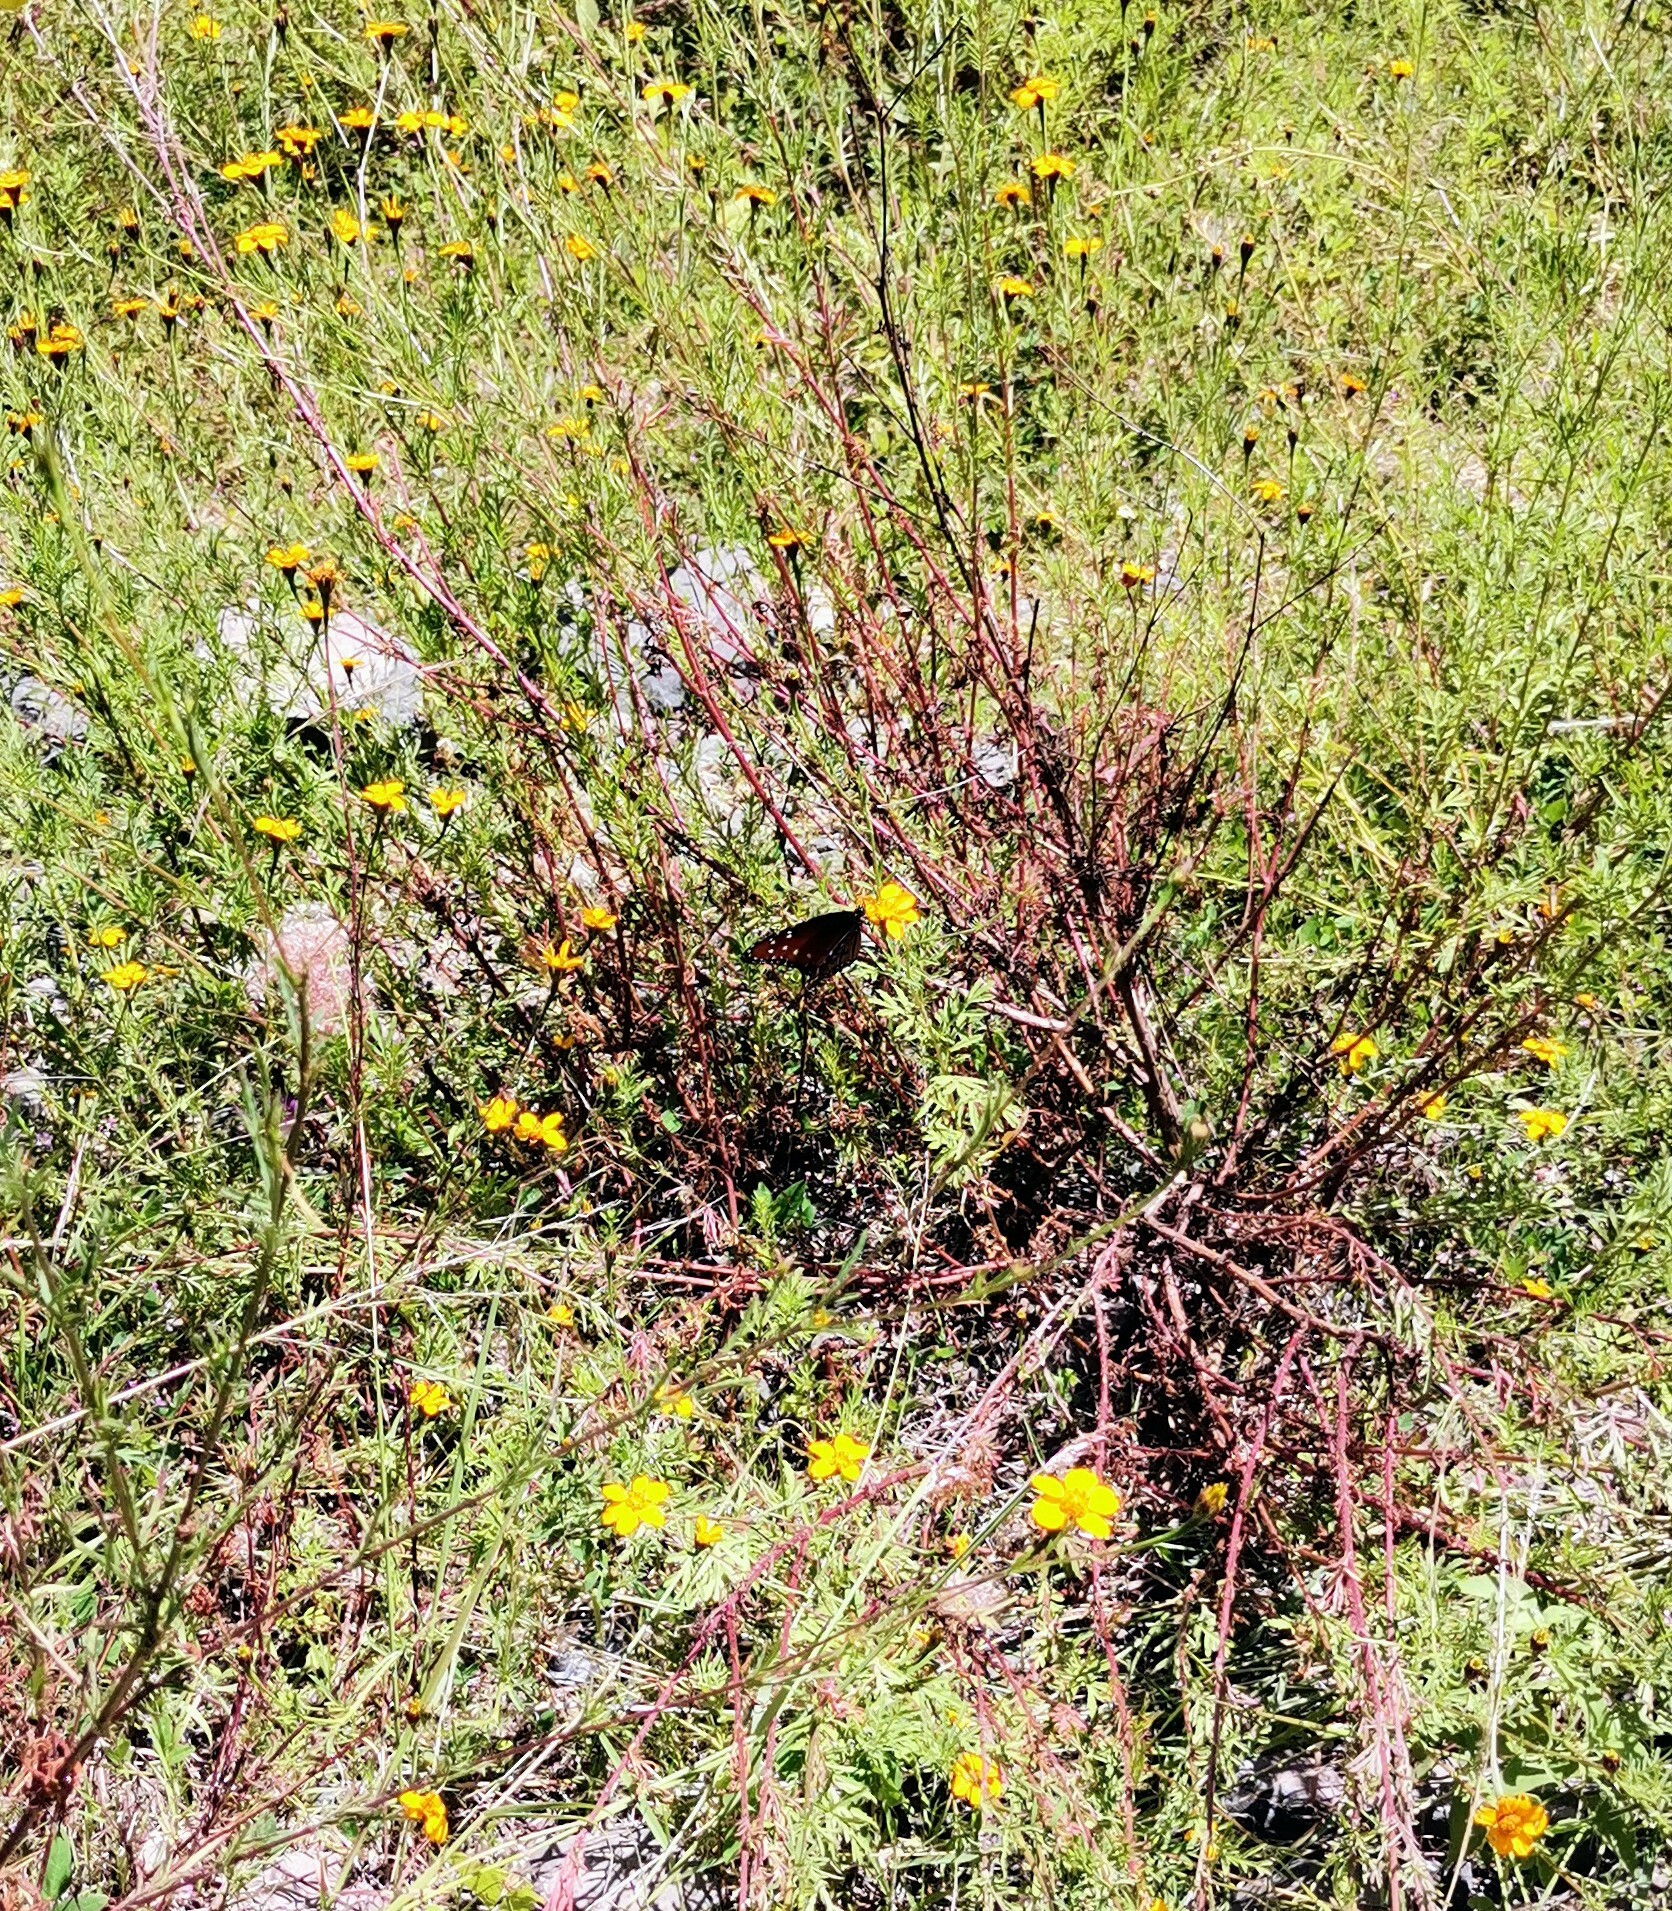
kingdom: Plantae
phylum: Tracheophyta
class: Magnoliopsida
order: Asterales
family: Asteraceae
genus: Dyssodia
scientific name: Dyssodia tagetiflora
